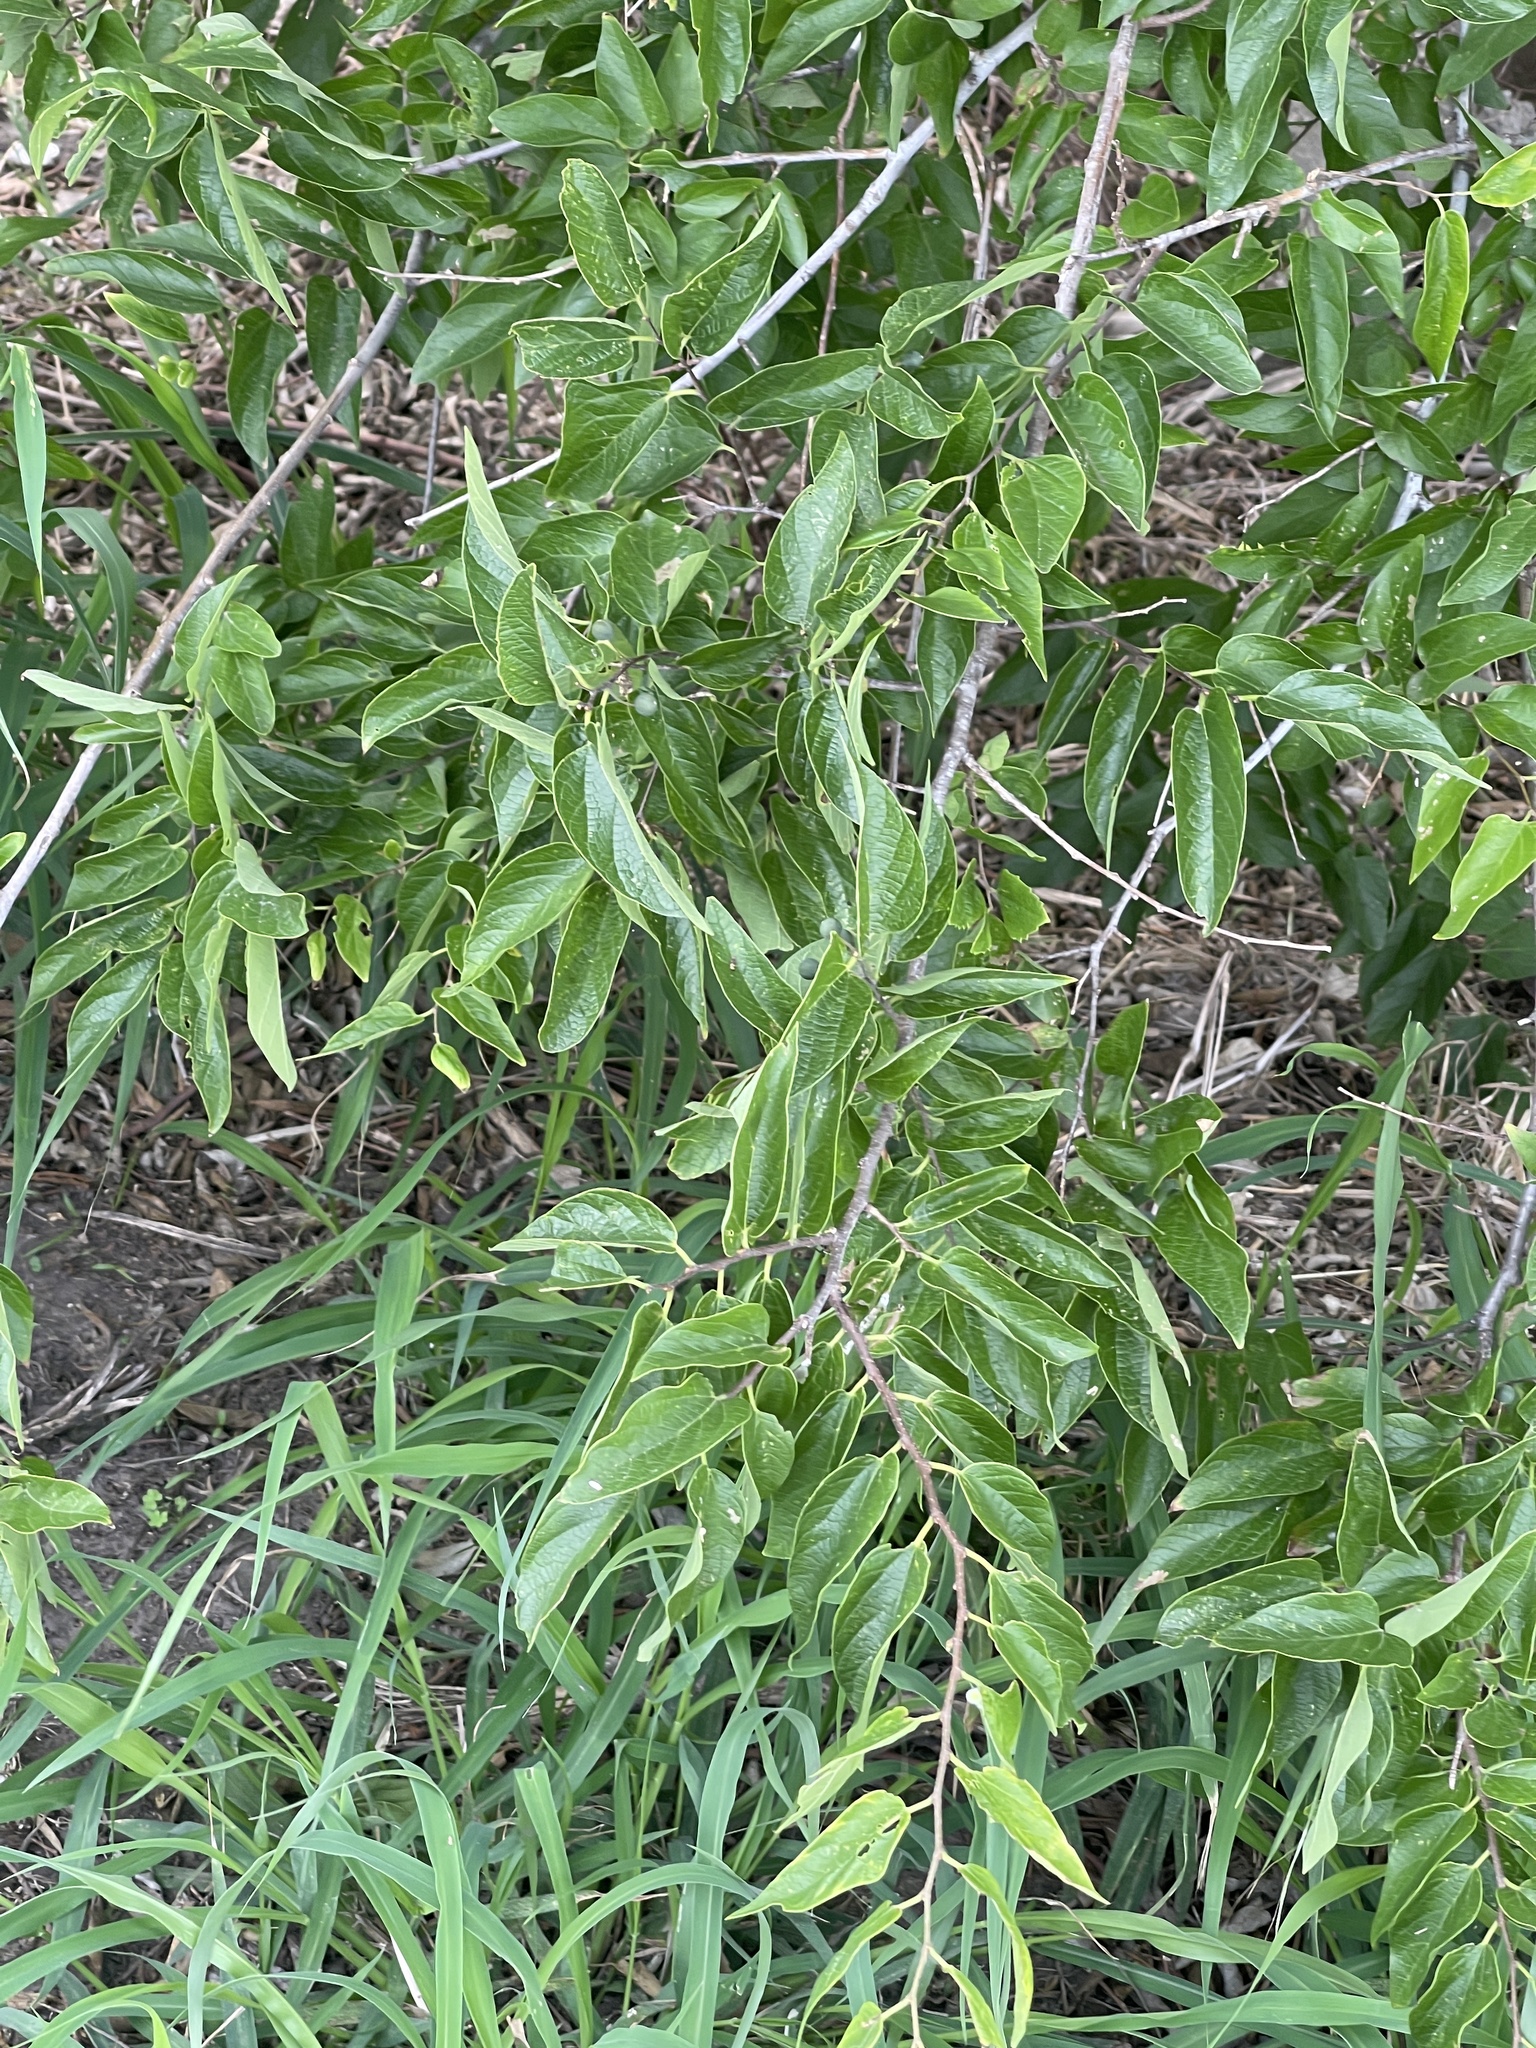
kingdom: Plantae
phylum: Tracheophyta
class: Magnoliopsida
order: Rosales
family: Cannabaceae
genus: Celtis
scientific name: Celtis reticulata
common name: Netleaf hackberry
